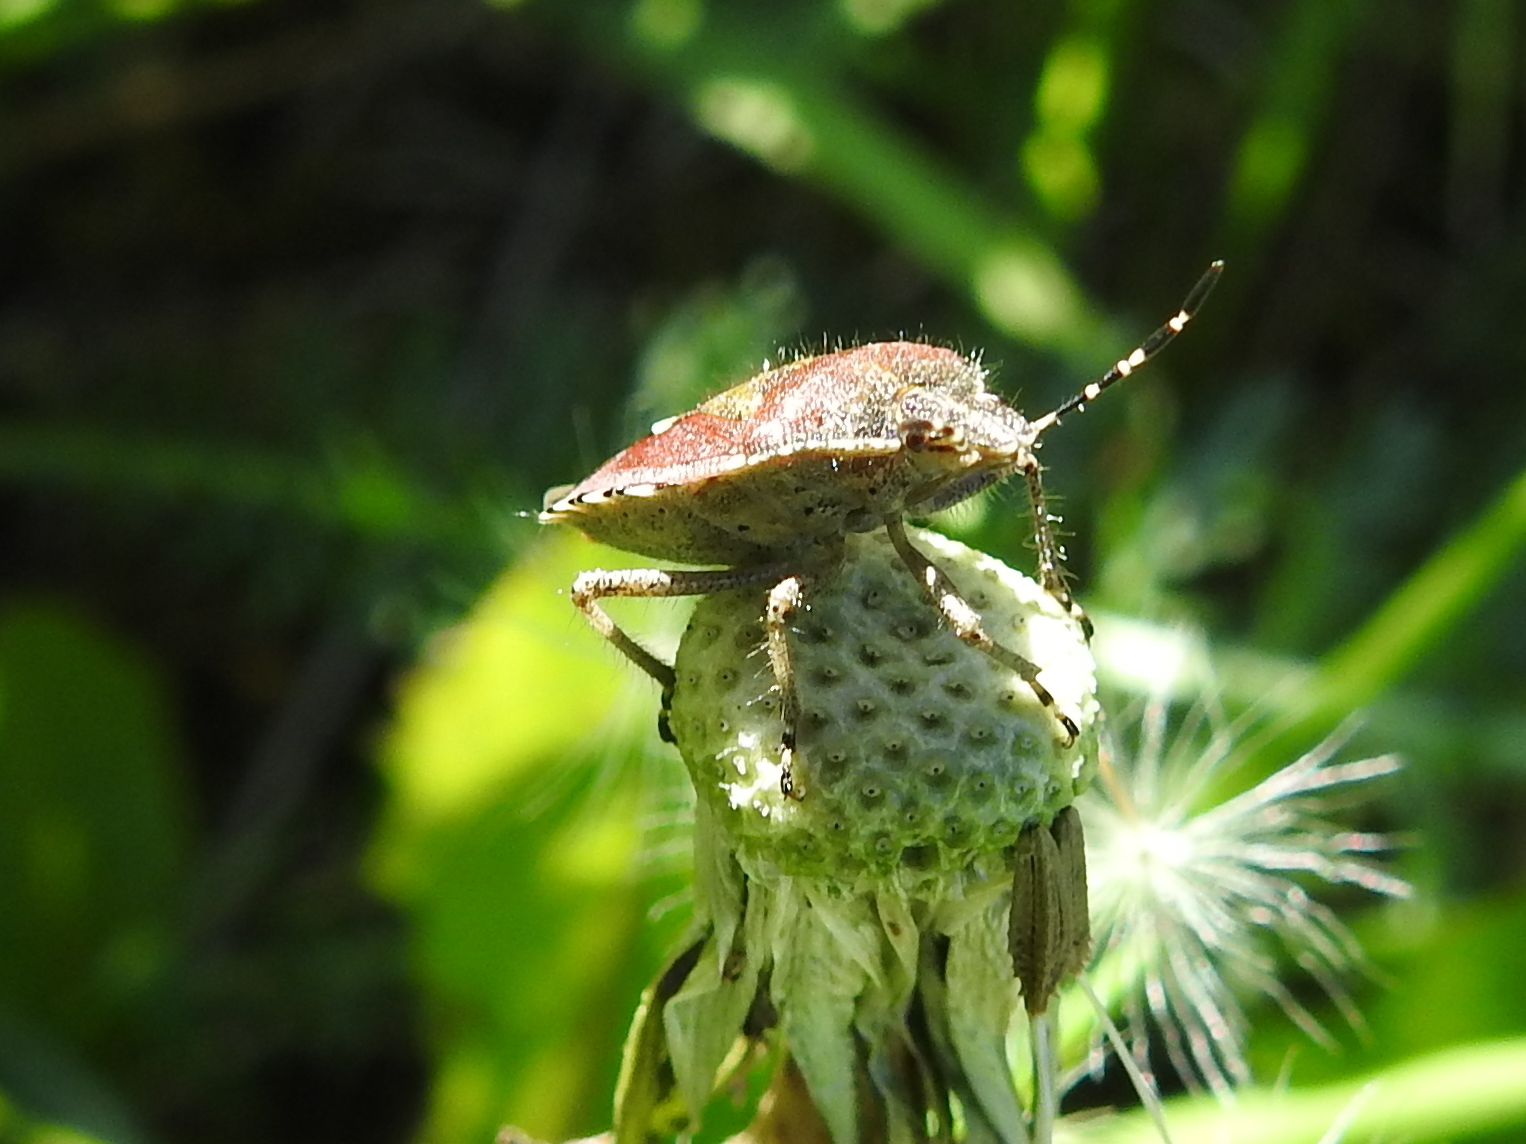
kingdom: Animalia
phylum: Arthropoda
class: Insecta
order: Hemiptera
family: Pentatomidae
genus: Dolycoris
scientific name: Dolycoris baccarum
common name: Sloe bug
